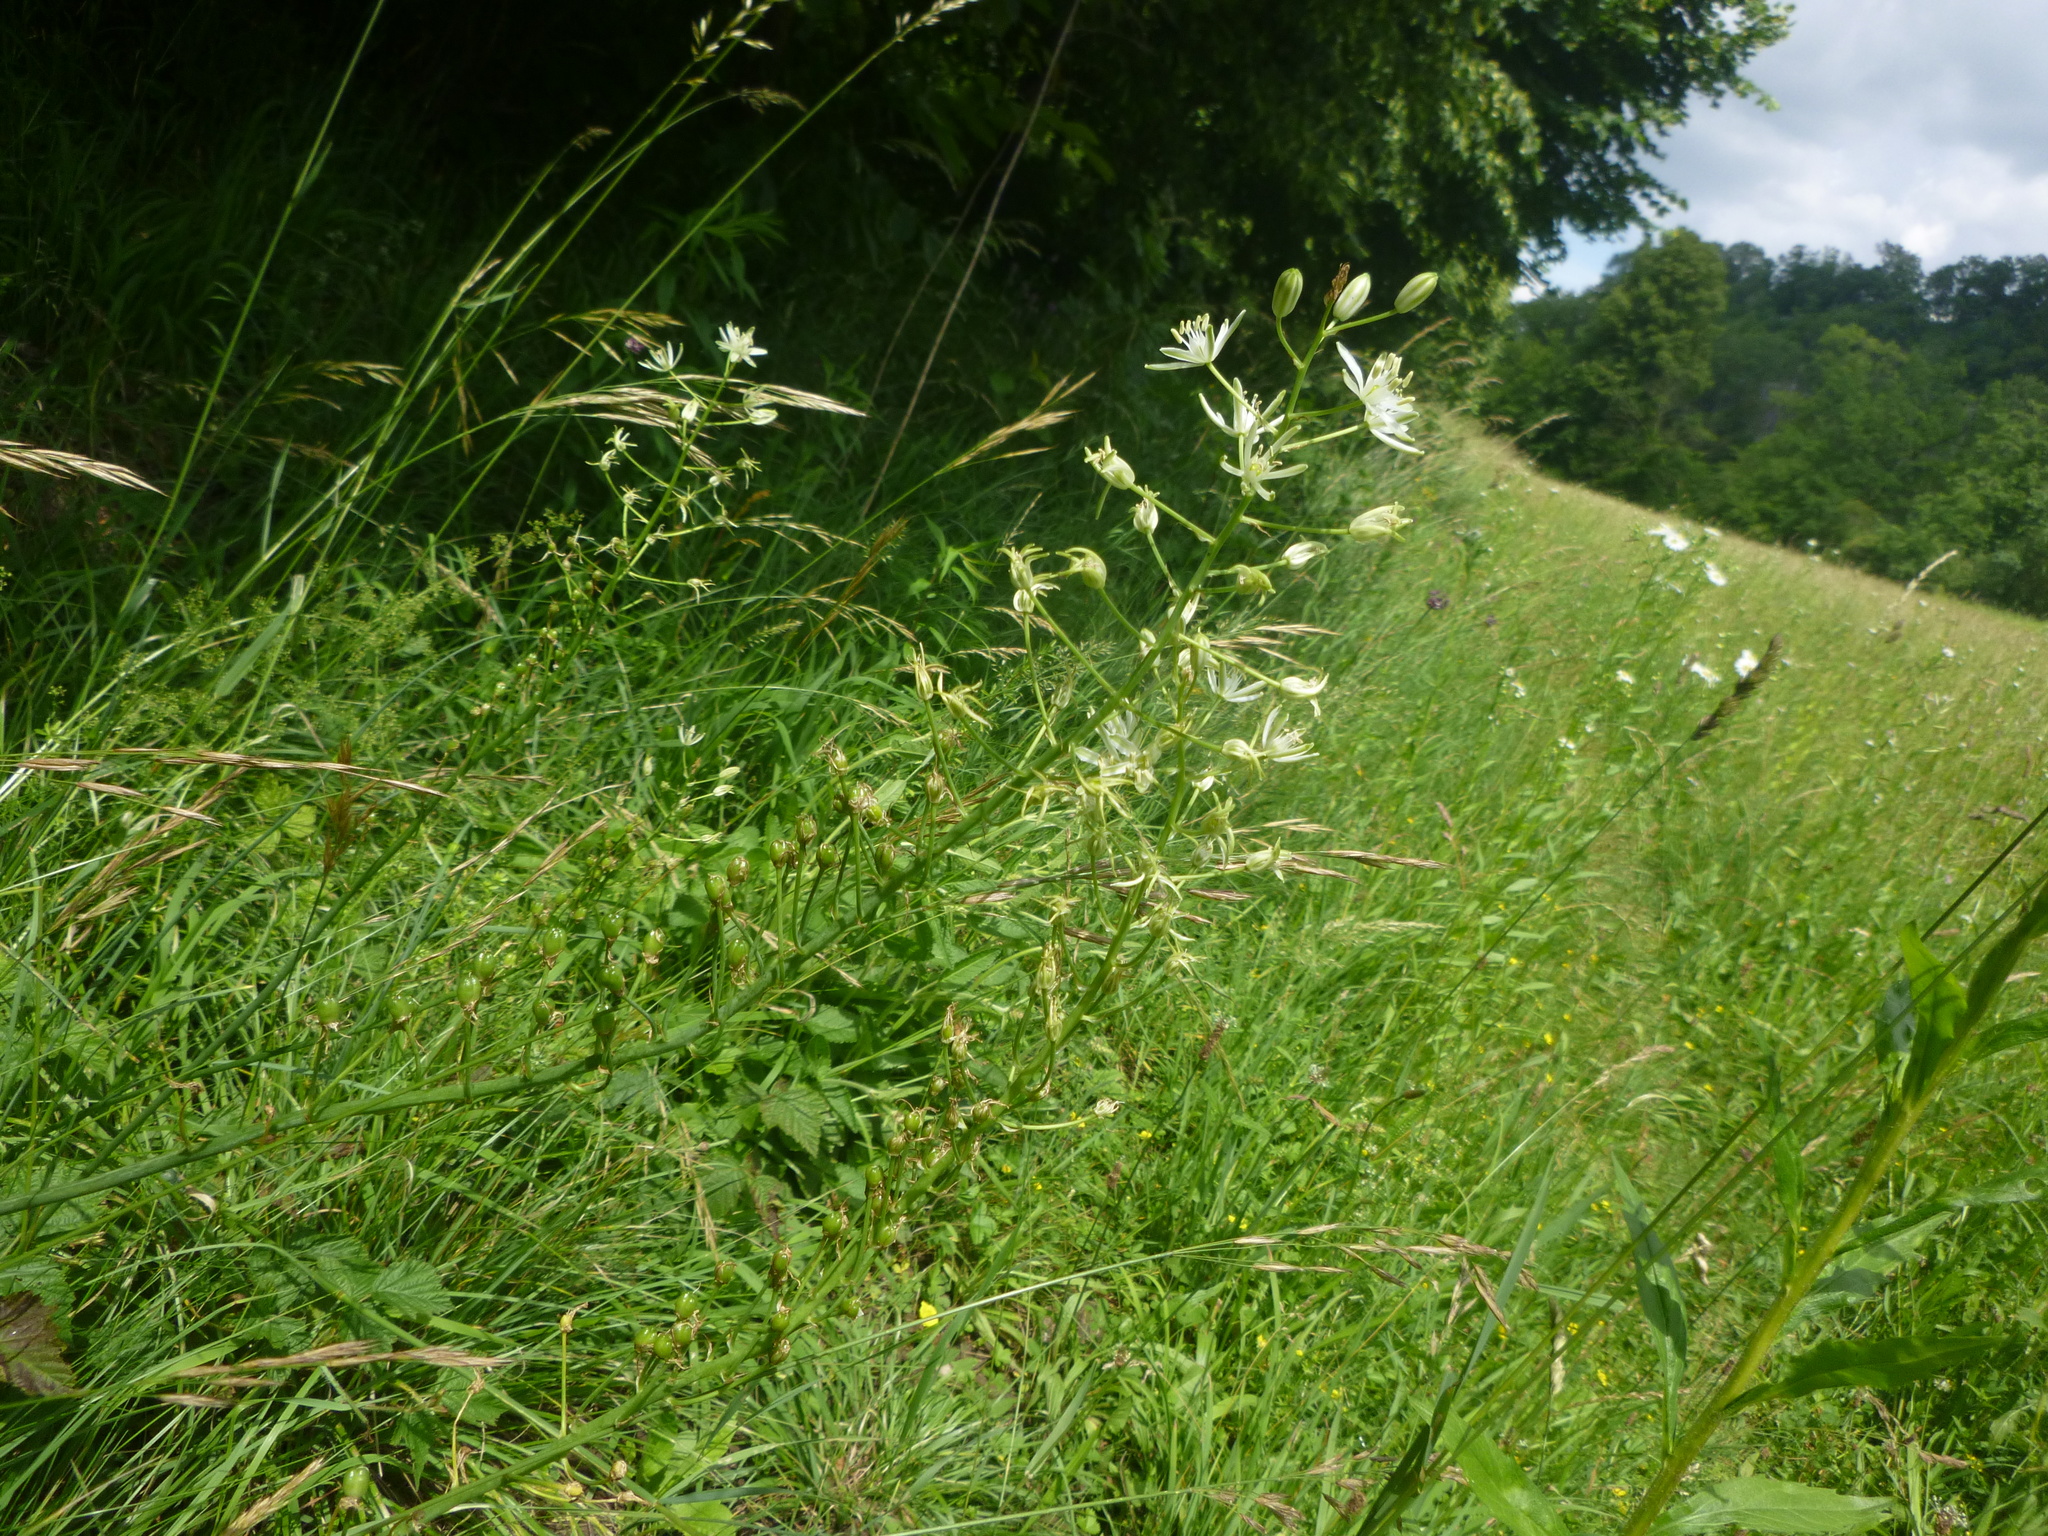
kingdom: Plantae
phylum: Tracheophyta
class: Liliopsida
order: Asparagales
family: Asparagaceae
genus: Ornithogalum
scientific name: Ornithogalum sphaerocarpum
